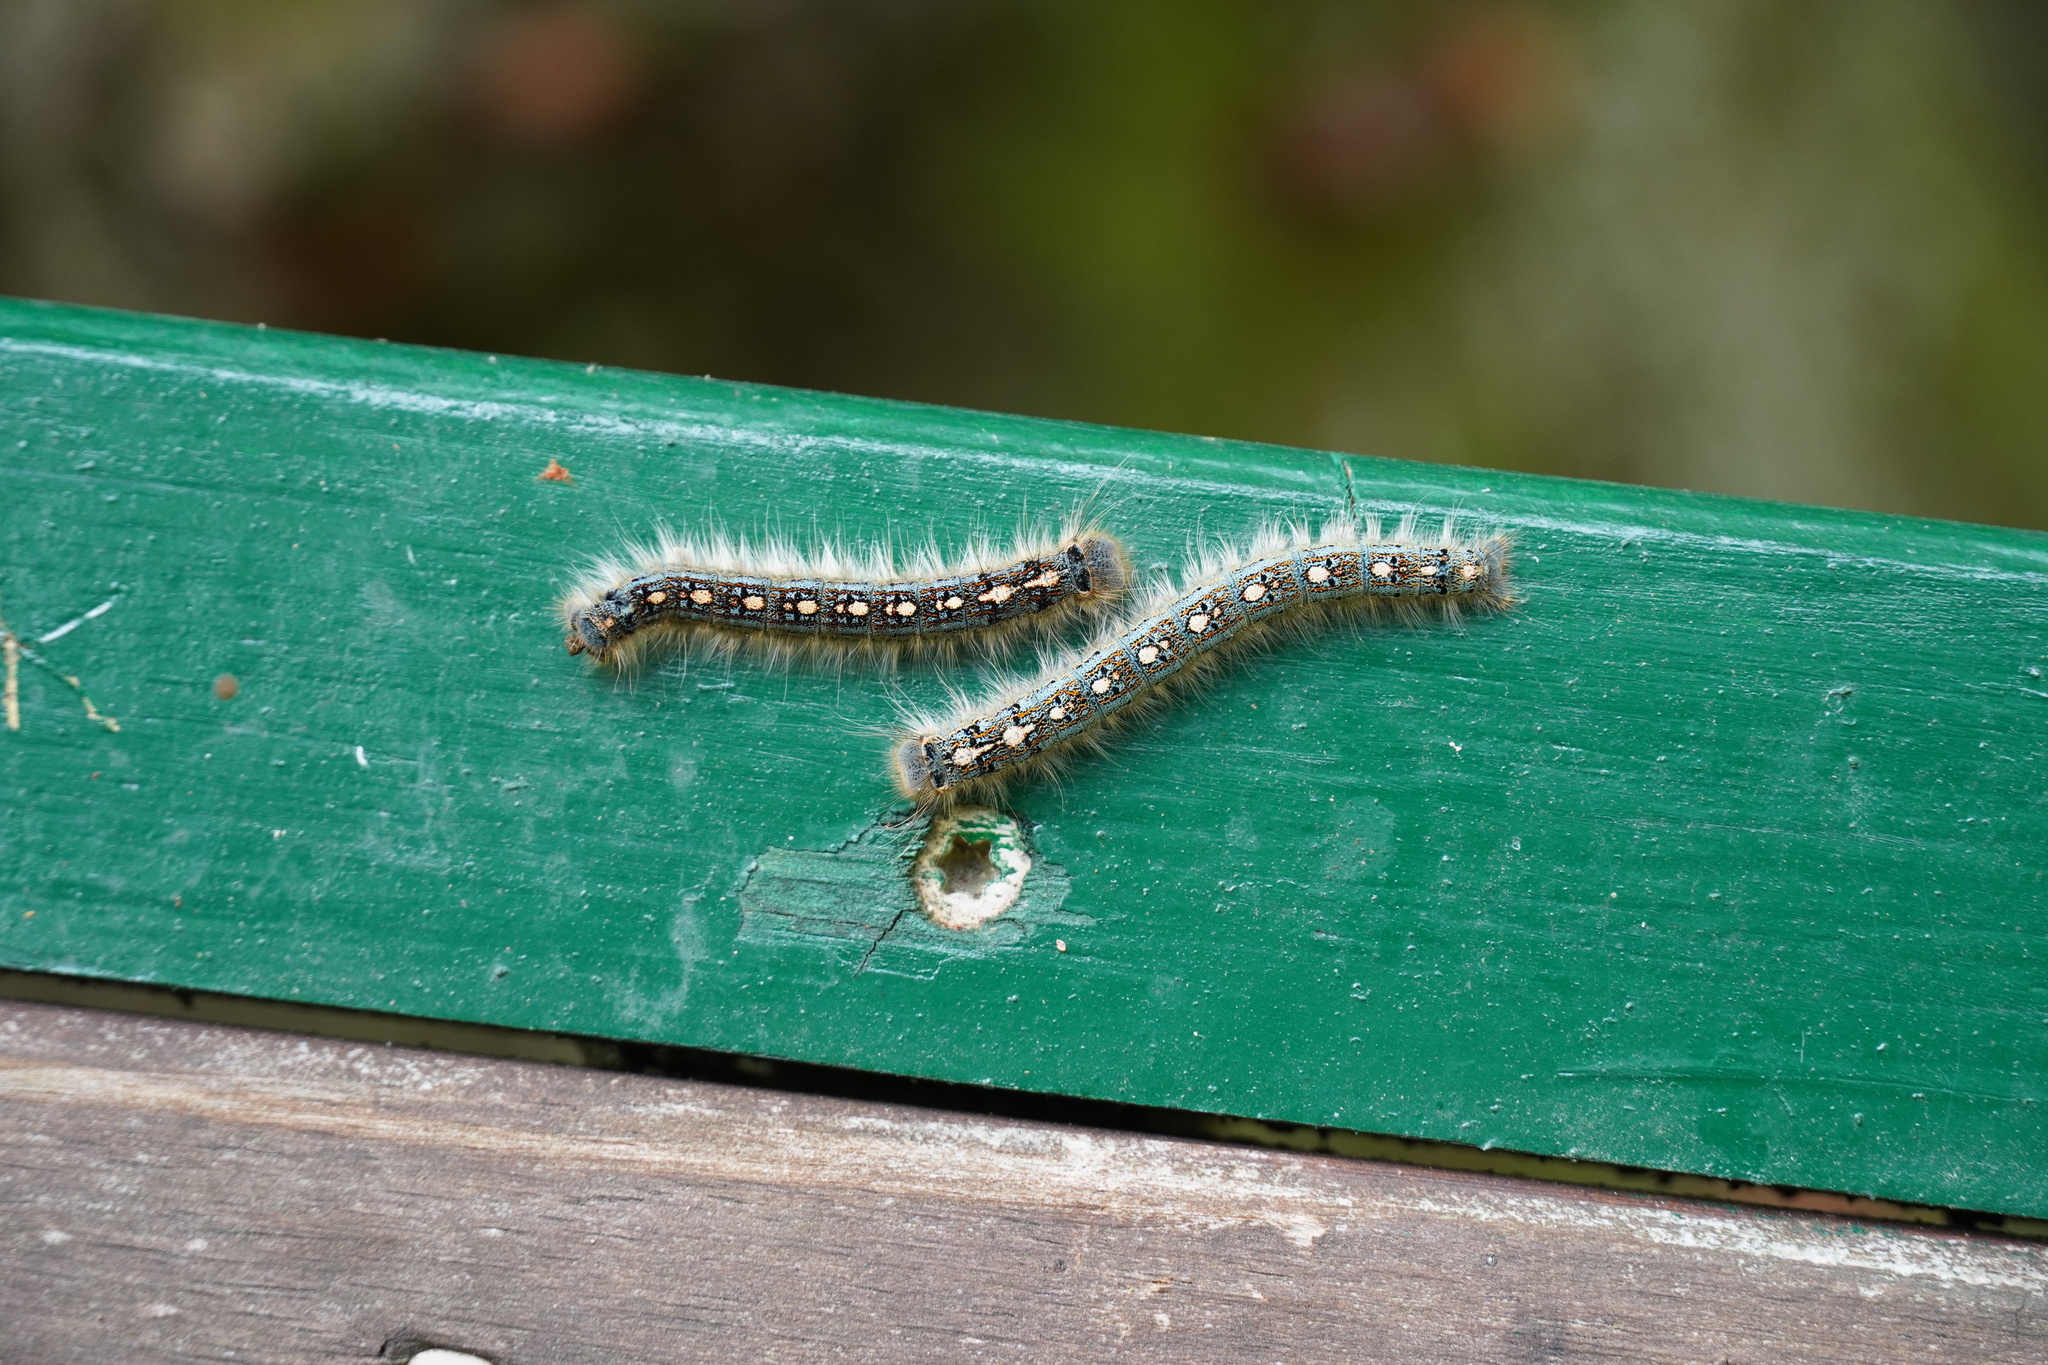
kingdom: Animalia
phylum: Arthropoda
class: Insecta
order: Lepidoptera
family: Lasiocampidae
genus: Malacosoma
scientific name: Malacosoma disstria
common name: Forest tent caterpillar
